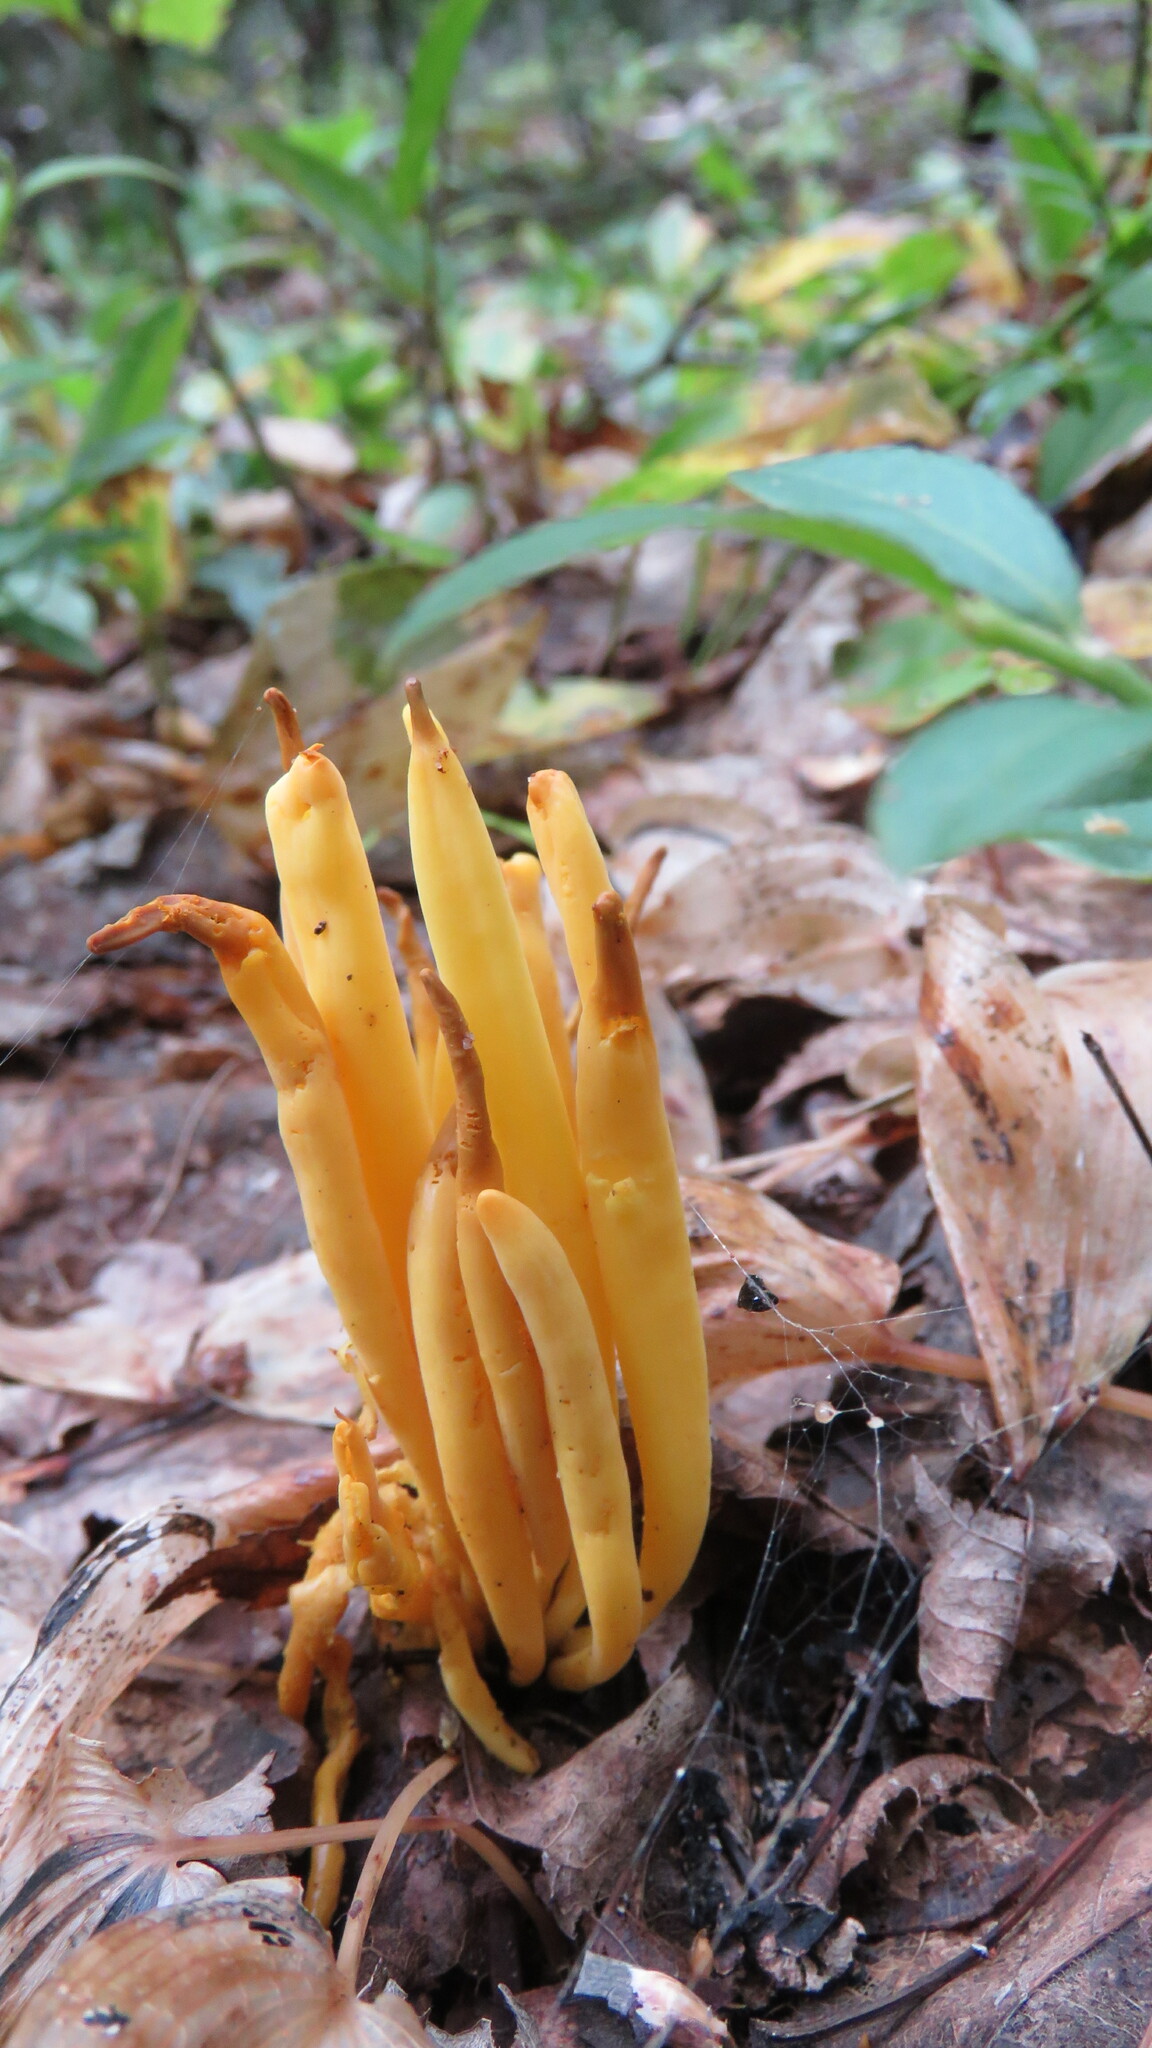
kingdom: Fungi
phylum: Basidiomycota
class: Agaricomycetes
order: Agaricales
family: Clavariaceae
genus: Clavulinopsis
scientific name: Clavulinopsis fusiformis
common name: Golden spindles
